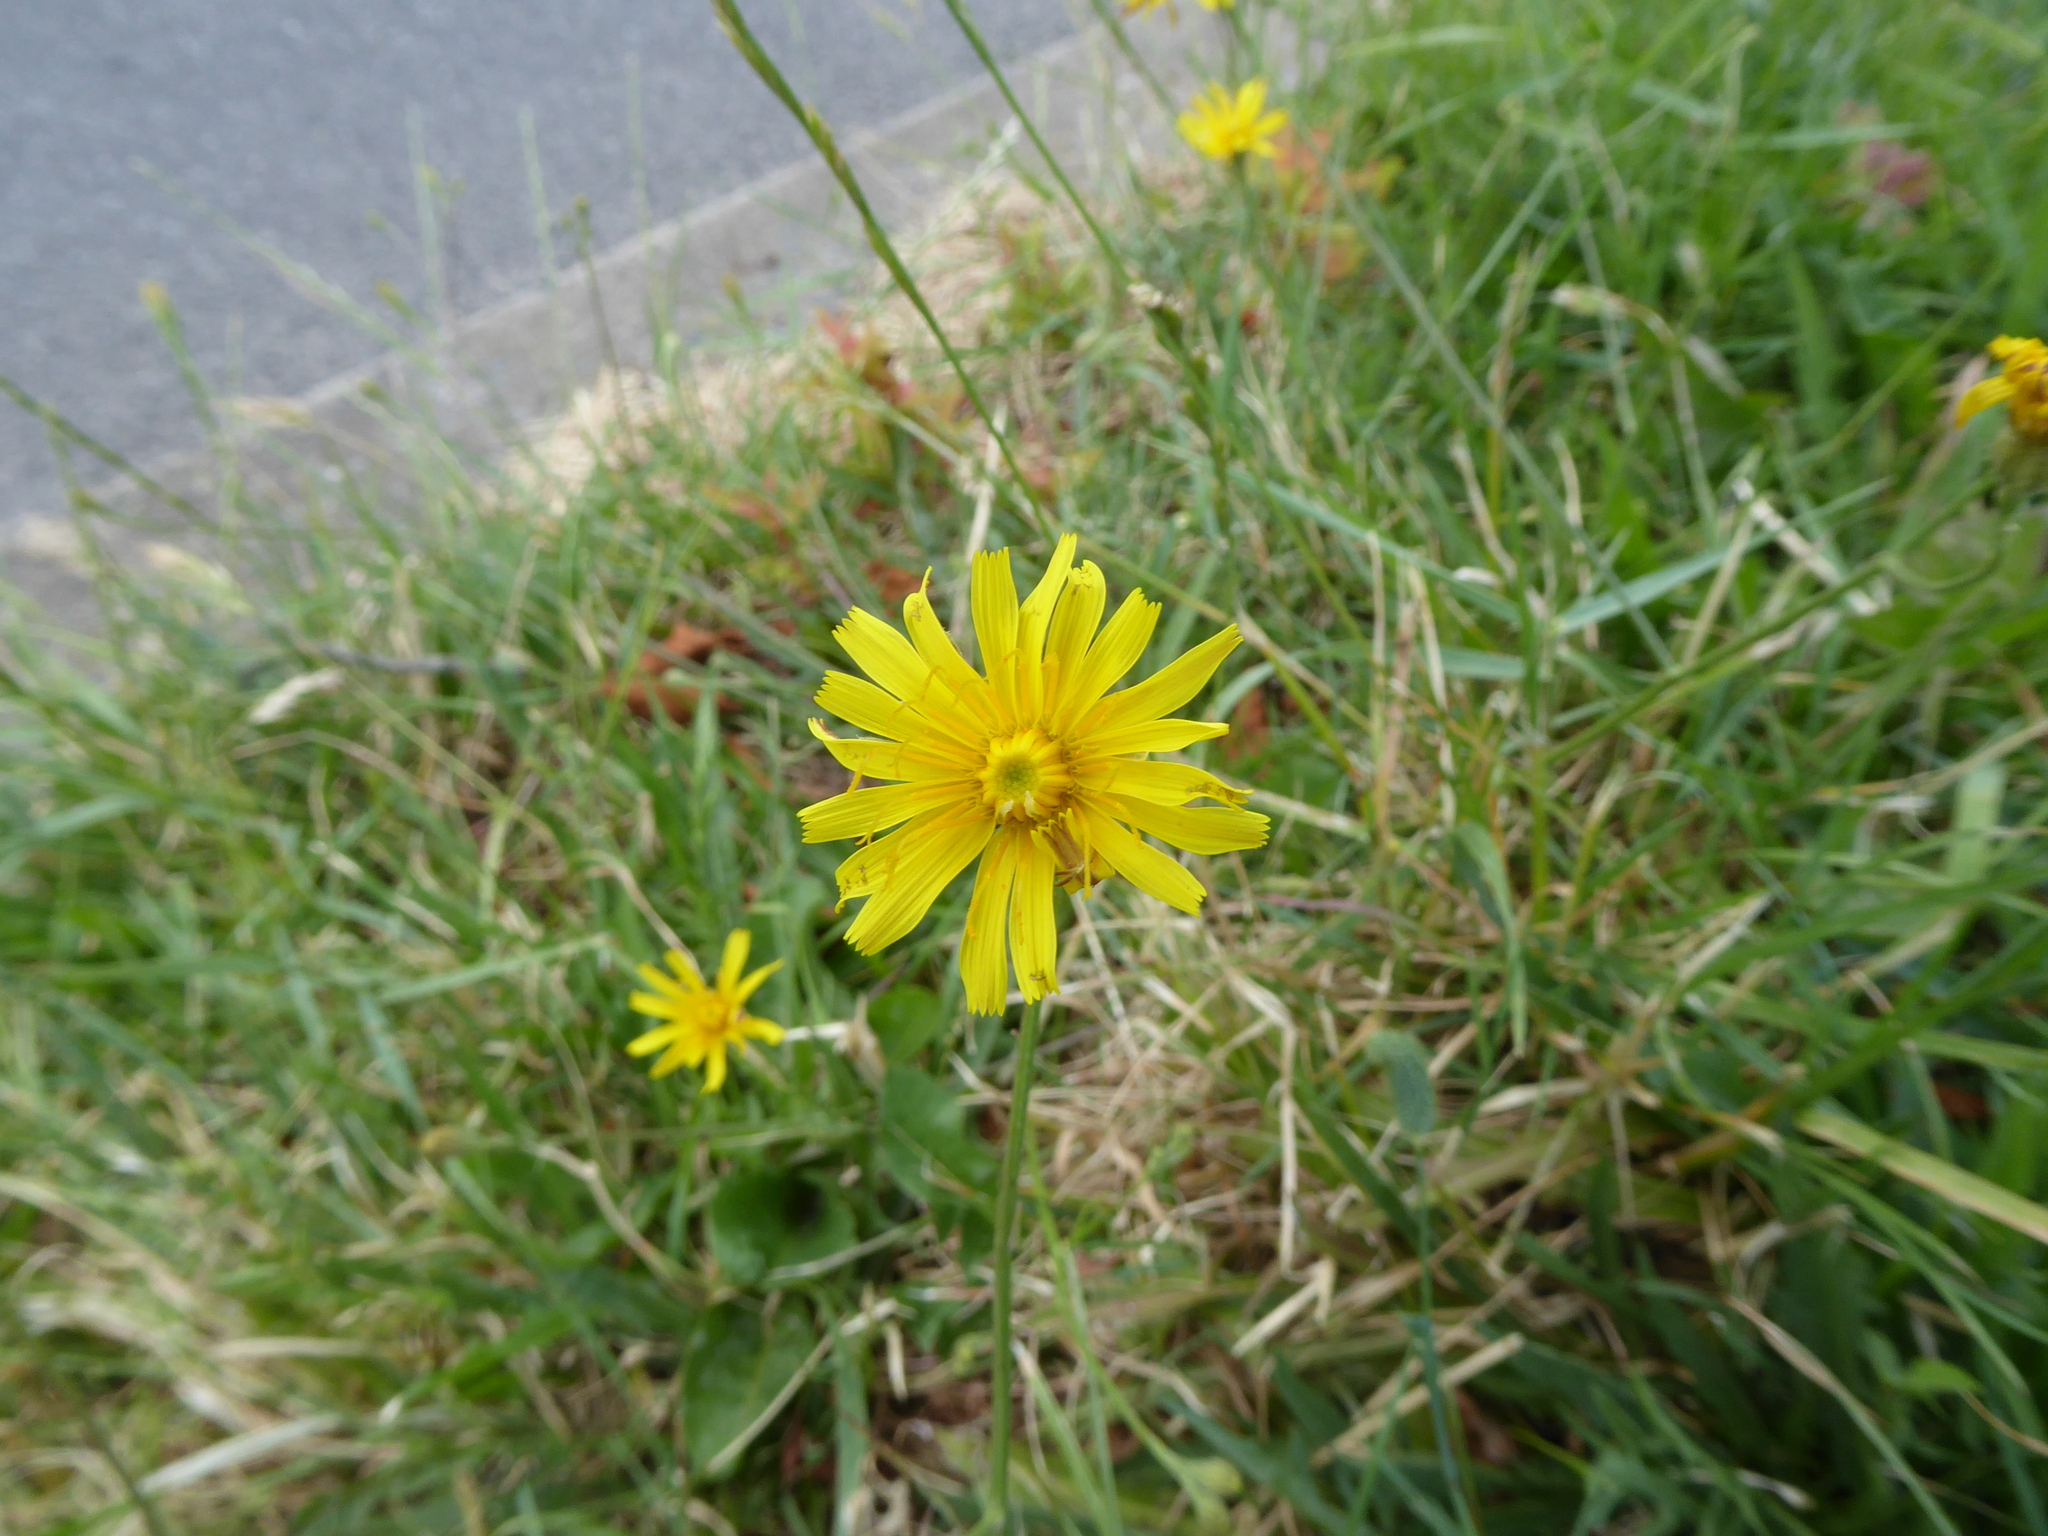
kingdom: Plantae
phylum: Tracheophyta
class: Magnoliopsida
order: Asterales
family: Asteraceae
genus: Scorzoneroides
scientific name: Scorzoneroides autumnalis
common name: Autumn hawkbit
